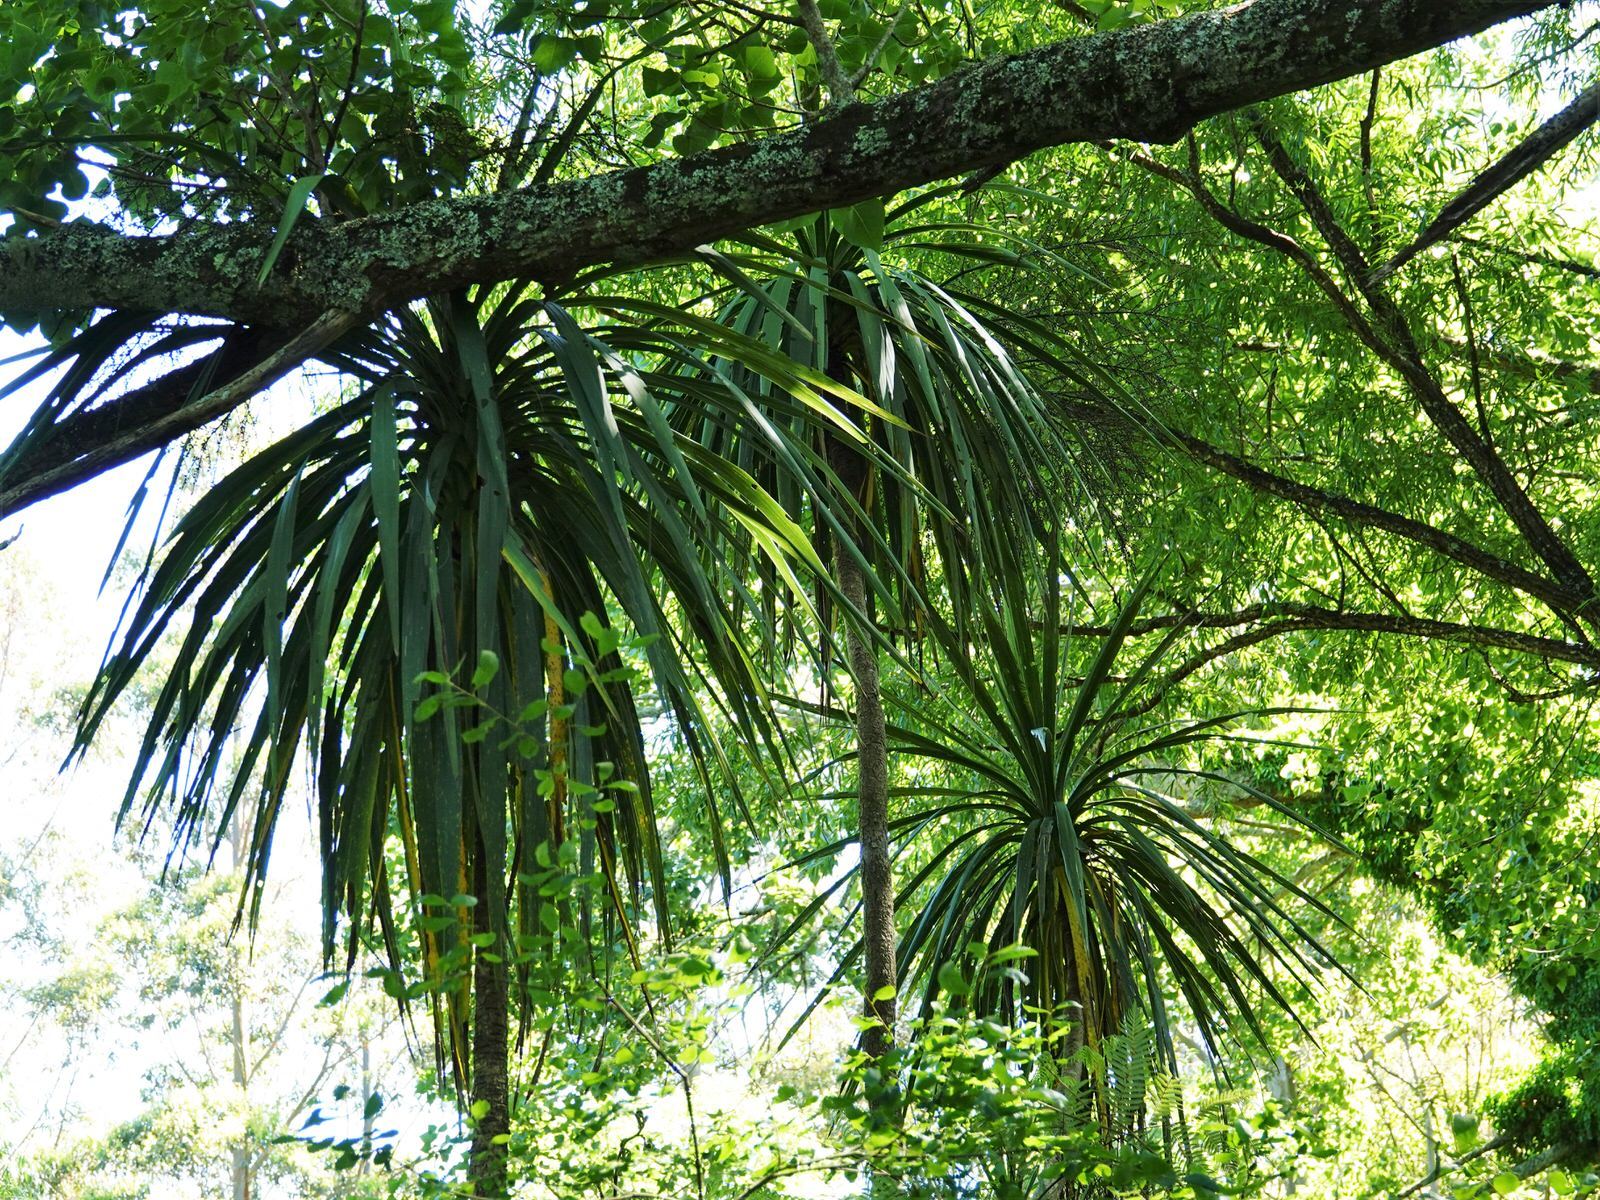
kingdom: Plantae
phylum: Tracheophyta
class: Liliopsida
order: Asparagales
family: Asparagaceae
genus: Cordyline
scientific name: Cordyline australis
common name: Cabbage-palm
